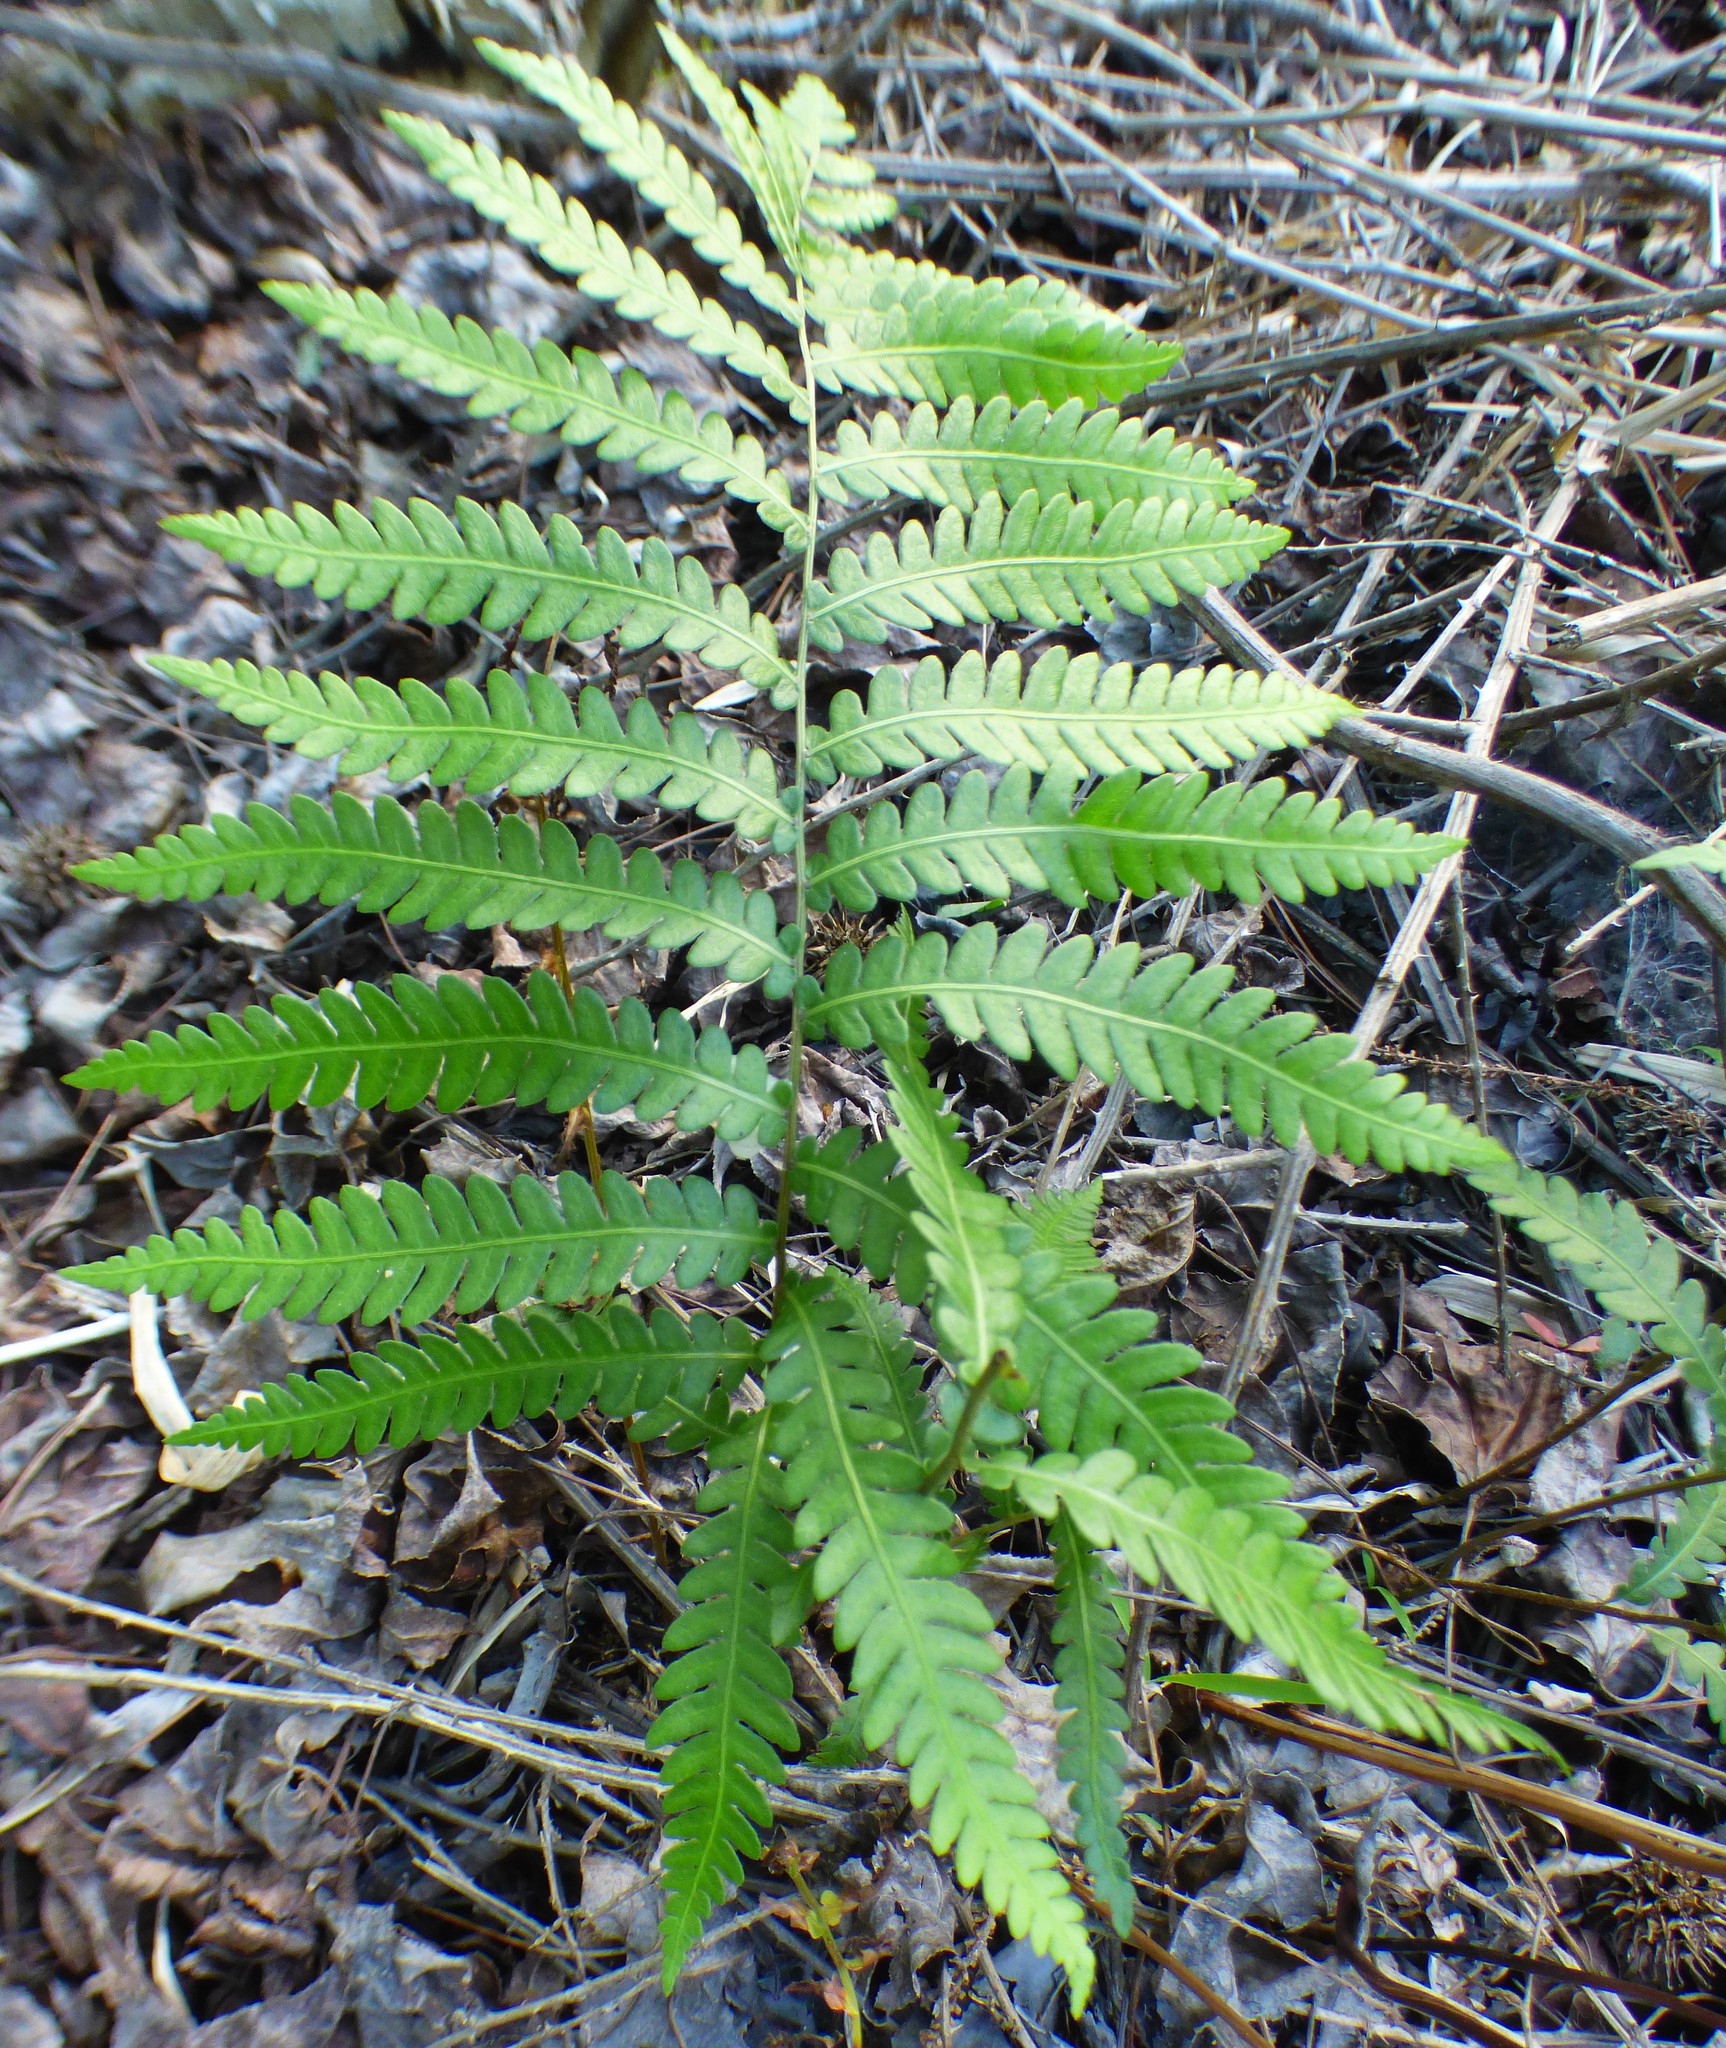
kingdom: Plantae
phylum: Tracheophyta
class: Polypodiopsida
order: Polypodiales
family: Blechnaceae
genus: Anchistea
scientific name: Anchistea virginica
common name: Virginia chain fern
